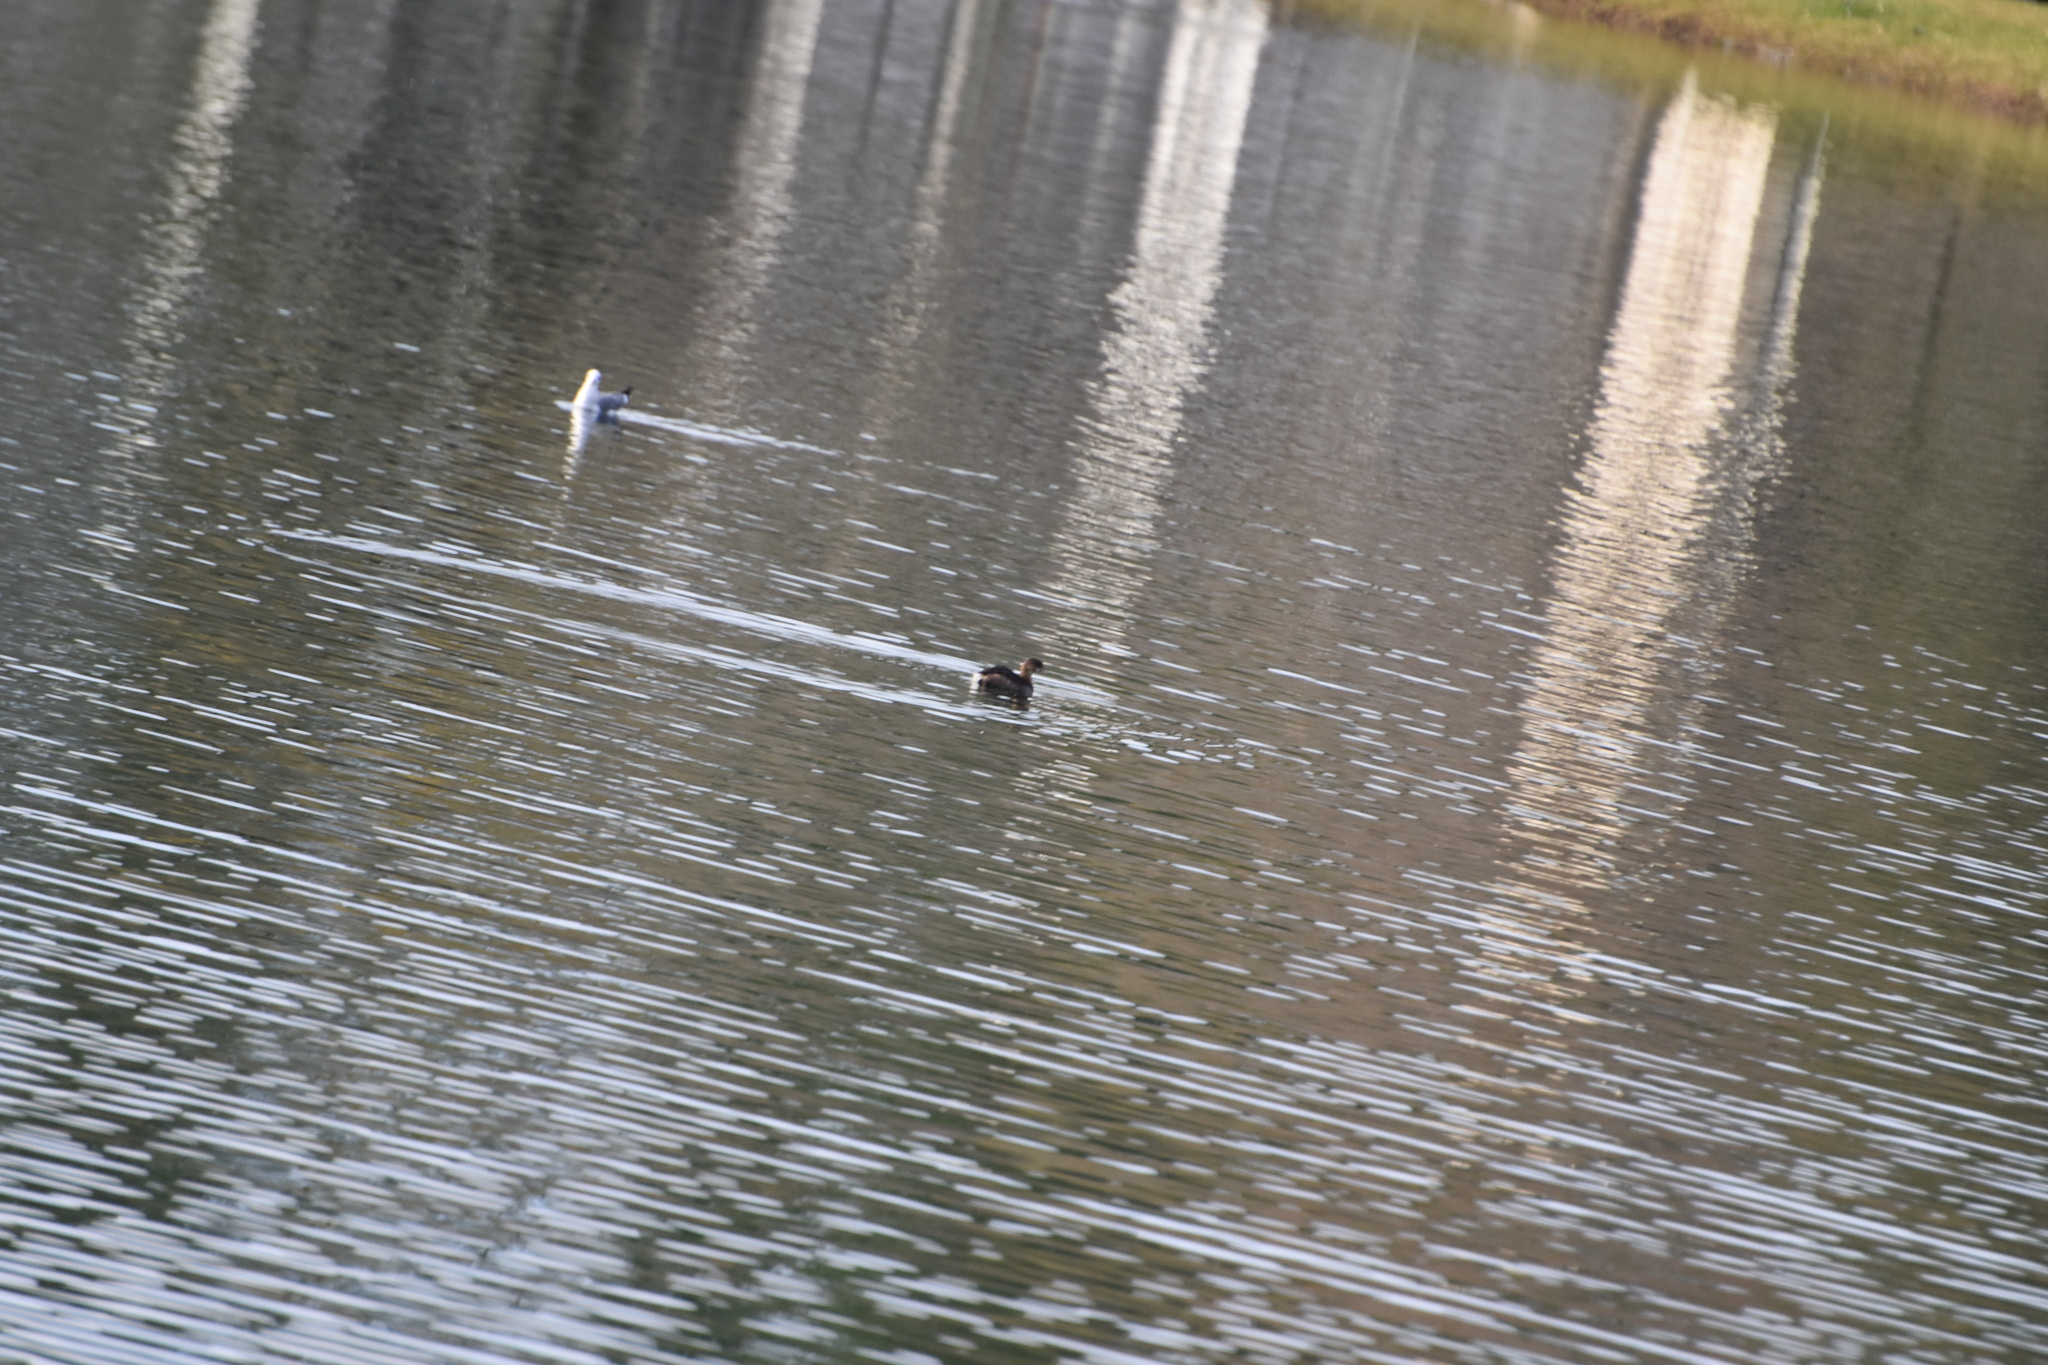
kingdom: Animalia
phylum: Chordata
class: Aves
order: Podicipediformes
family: Podicipedidae
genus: Podilymbus
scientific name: Podilymbus podiceps
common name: Pied-billed grebe
